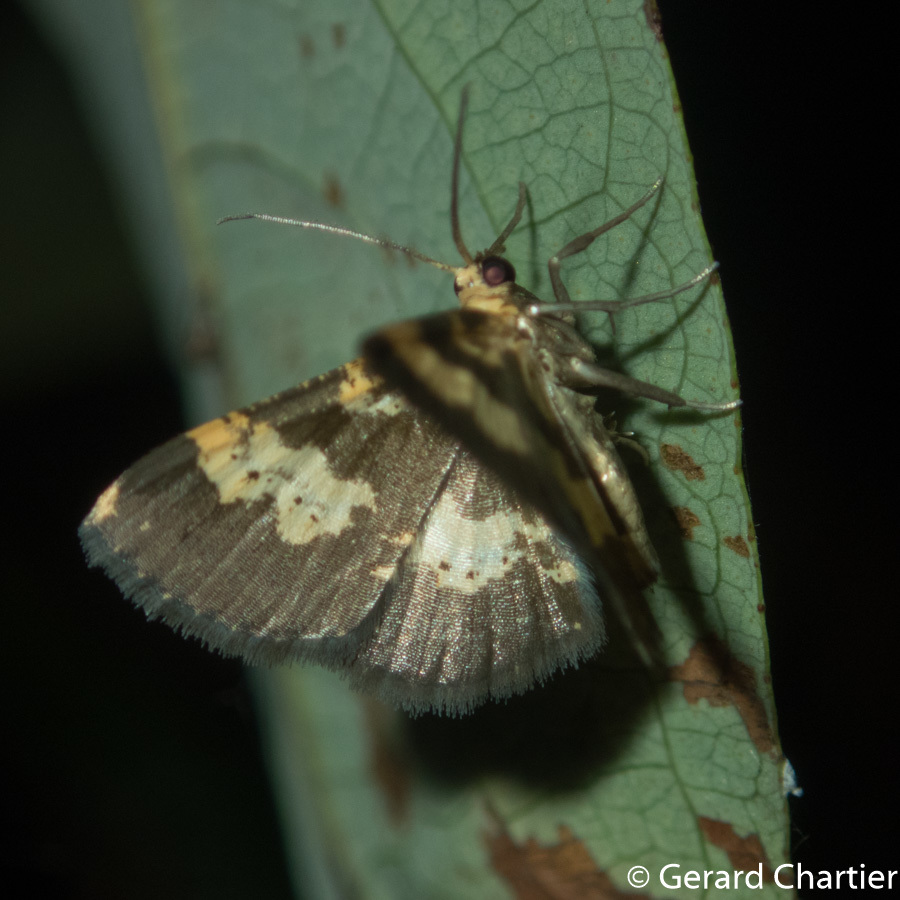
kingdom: Animalia
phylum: Arthropoda
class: Insecta
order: Lepidoptera
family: Geometridae
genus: Peratophyga
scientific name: Peratophyga bifasciata
